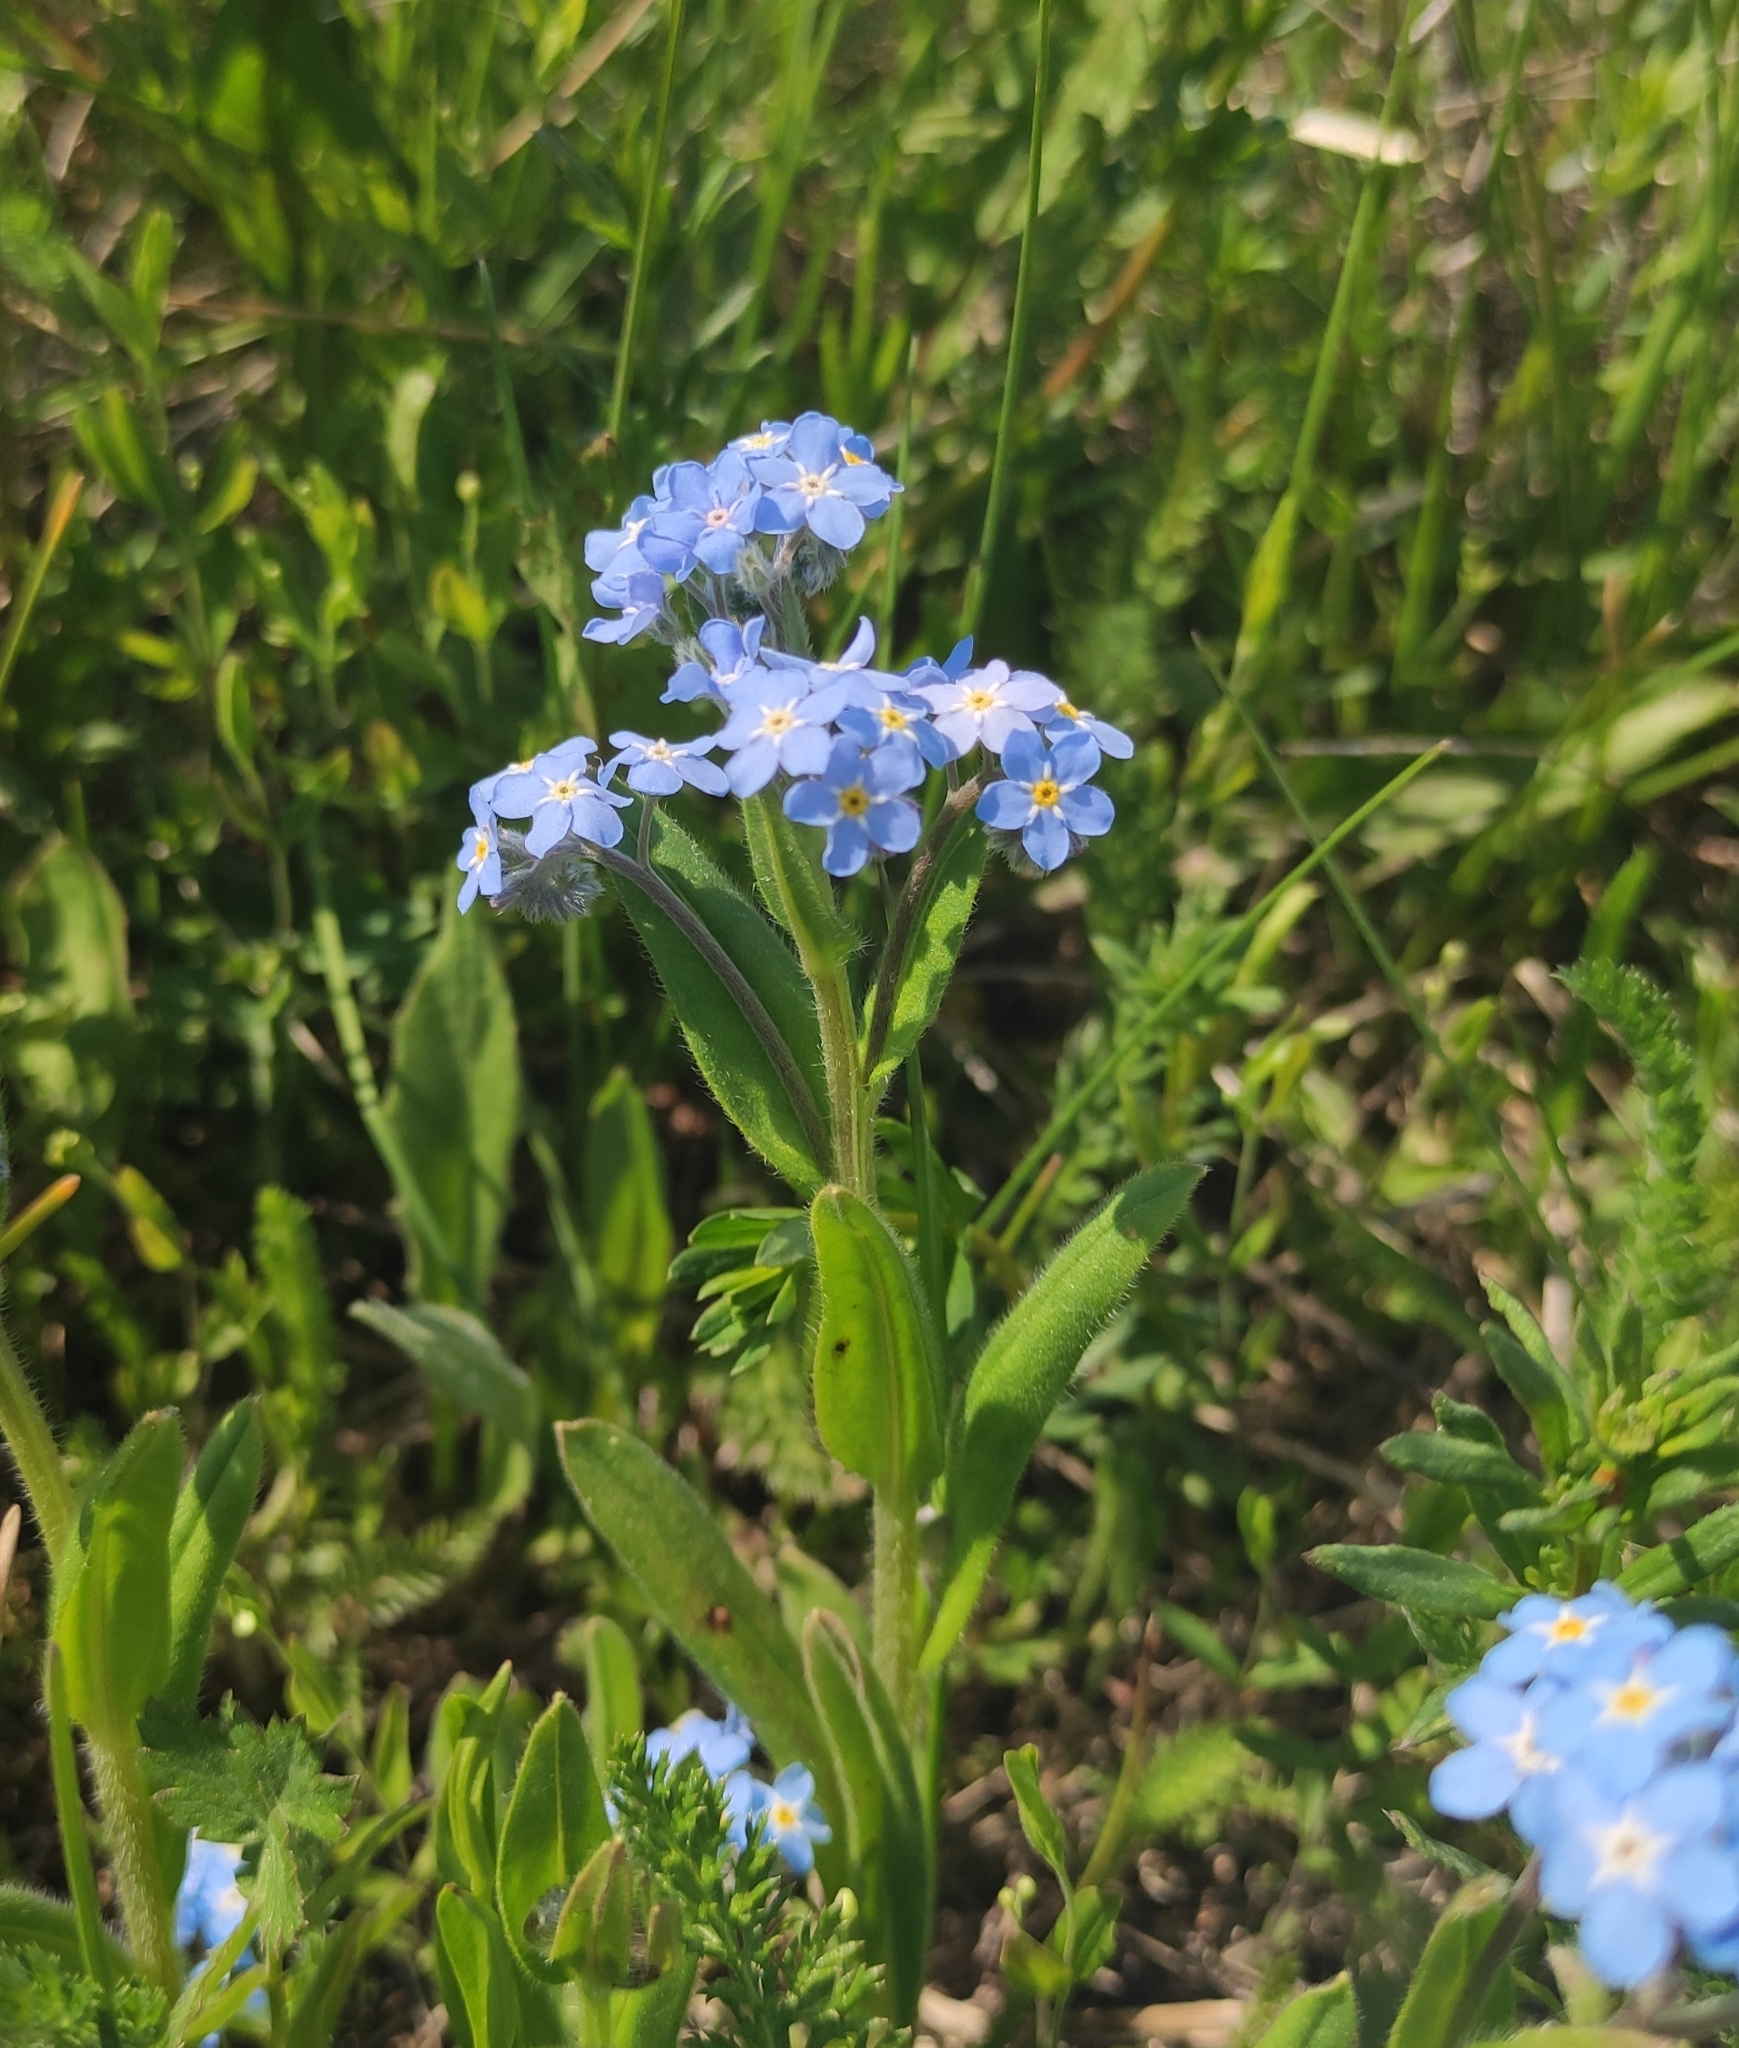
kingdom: Plantae
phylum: Tracheophyta
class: Magnoliopsida
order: Boraginales
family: Boraginaceae
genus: Myosotis
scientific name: Myosotis imitata
